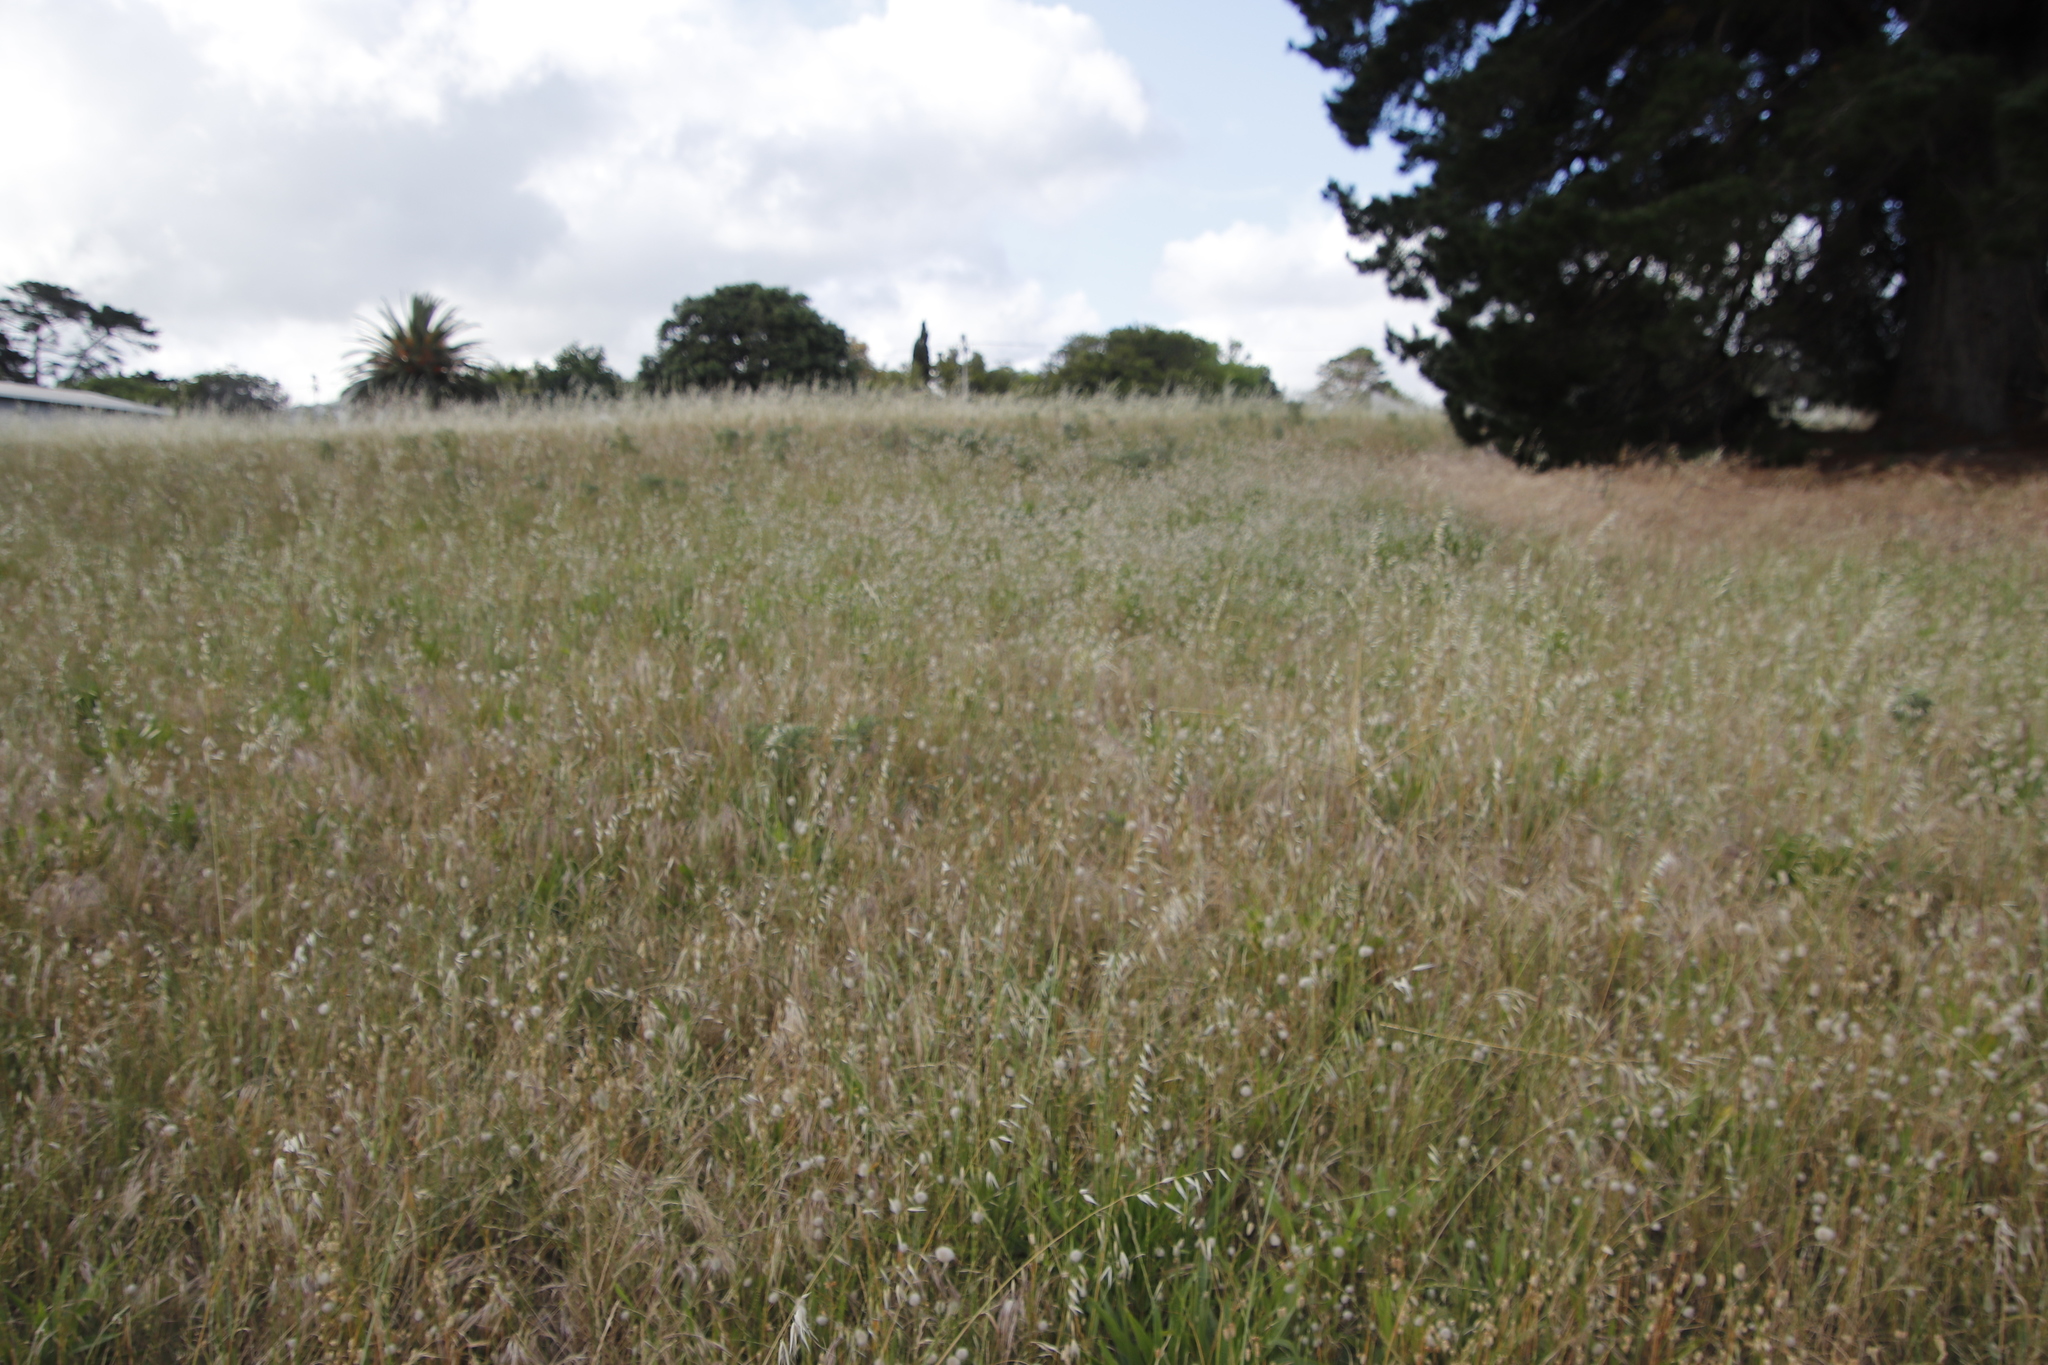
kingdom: Plantae
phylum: Tracheophyta
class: Liliopsida
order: Poales
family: Poaceae
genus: Lagurus
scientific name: Lagurus ovatus
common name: Hare's-tail
